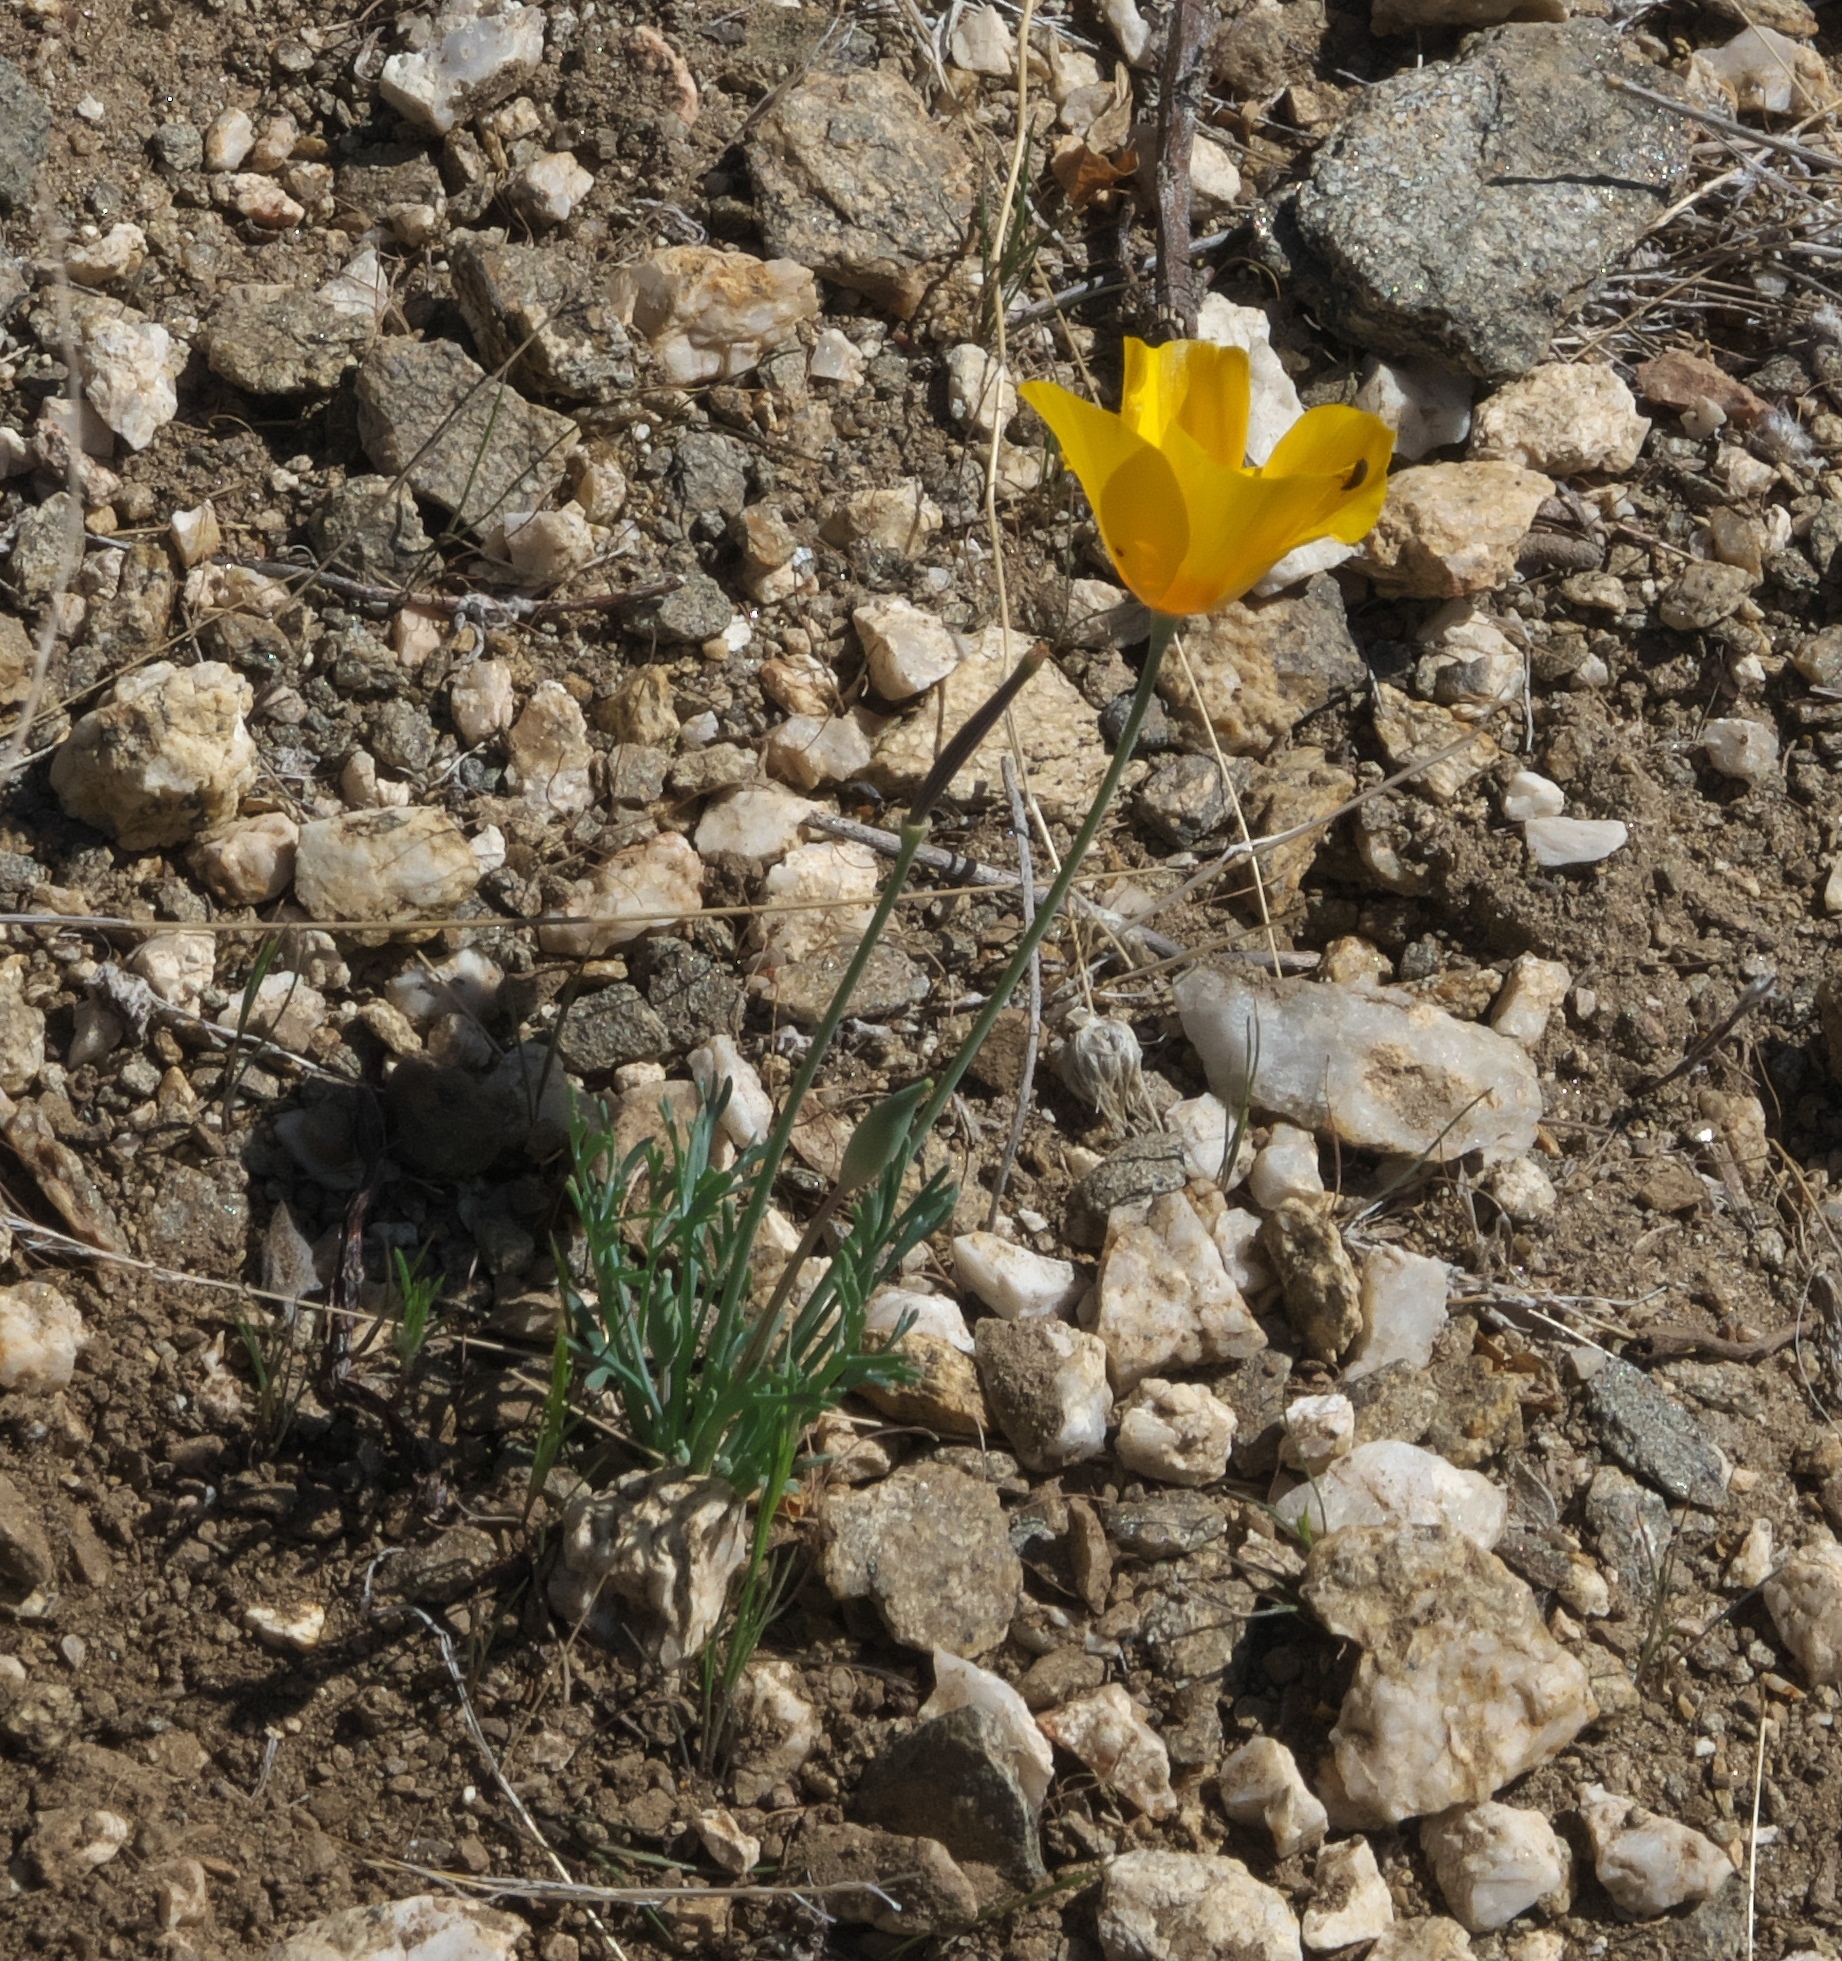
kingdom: Plantae
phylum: Tracheophyta
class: Magnoliopsida
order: Ranunculales
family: Papaveraceae
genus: Eschscholzia
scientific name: Eschscholzia californica
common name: California poppy
